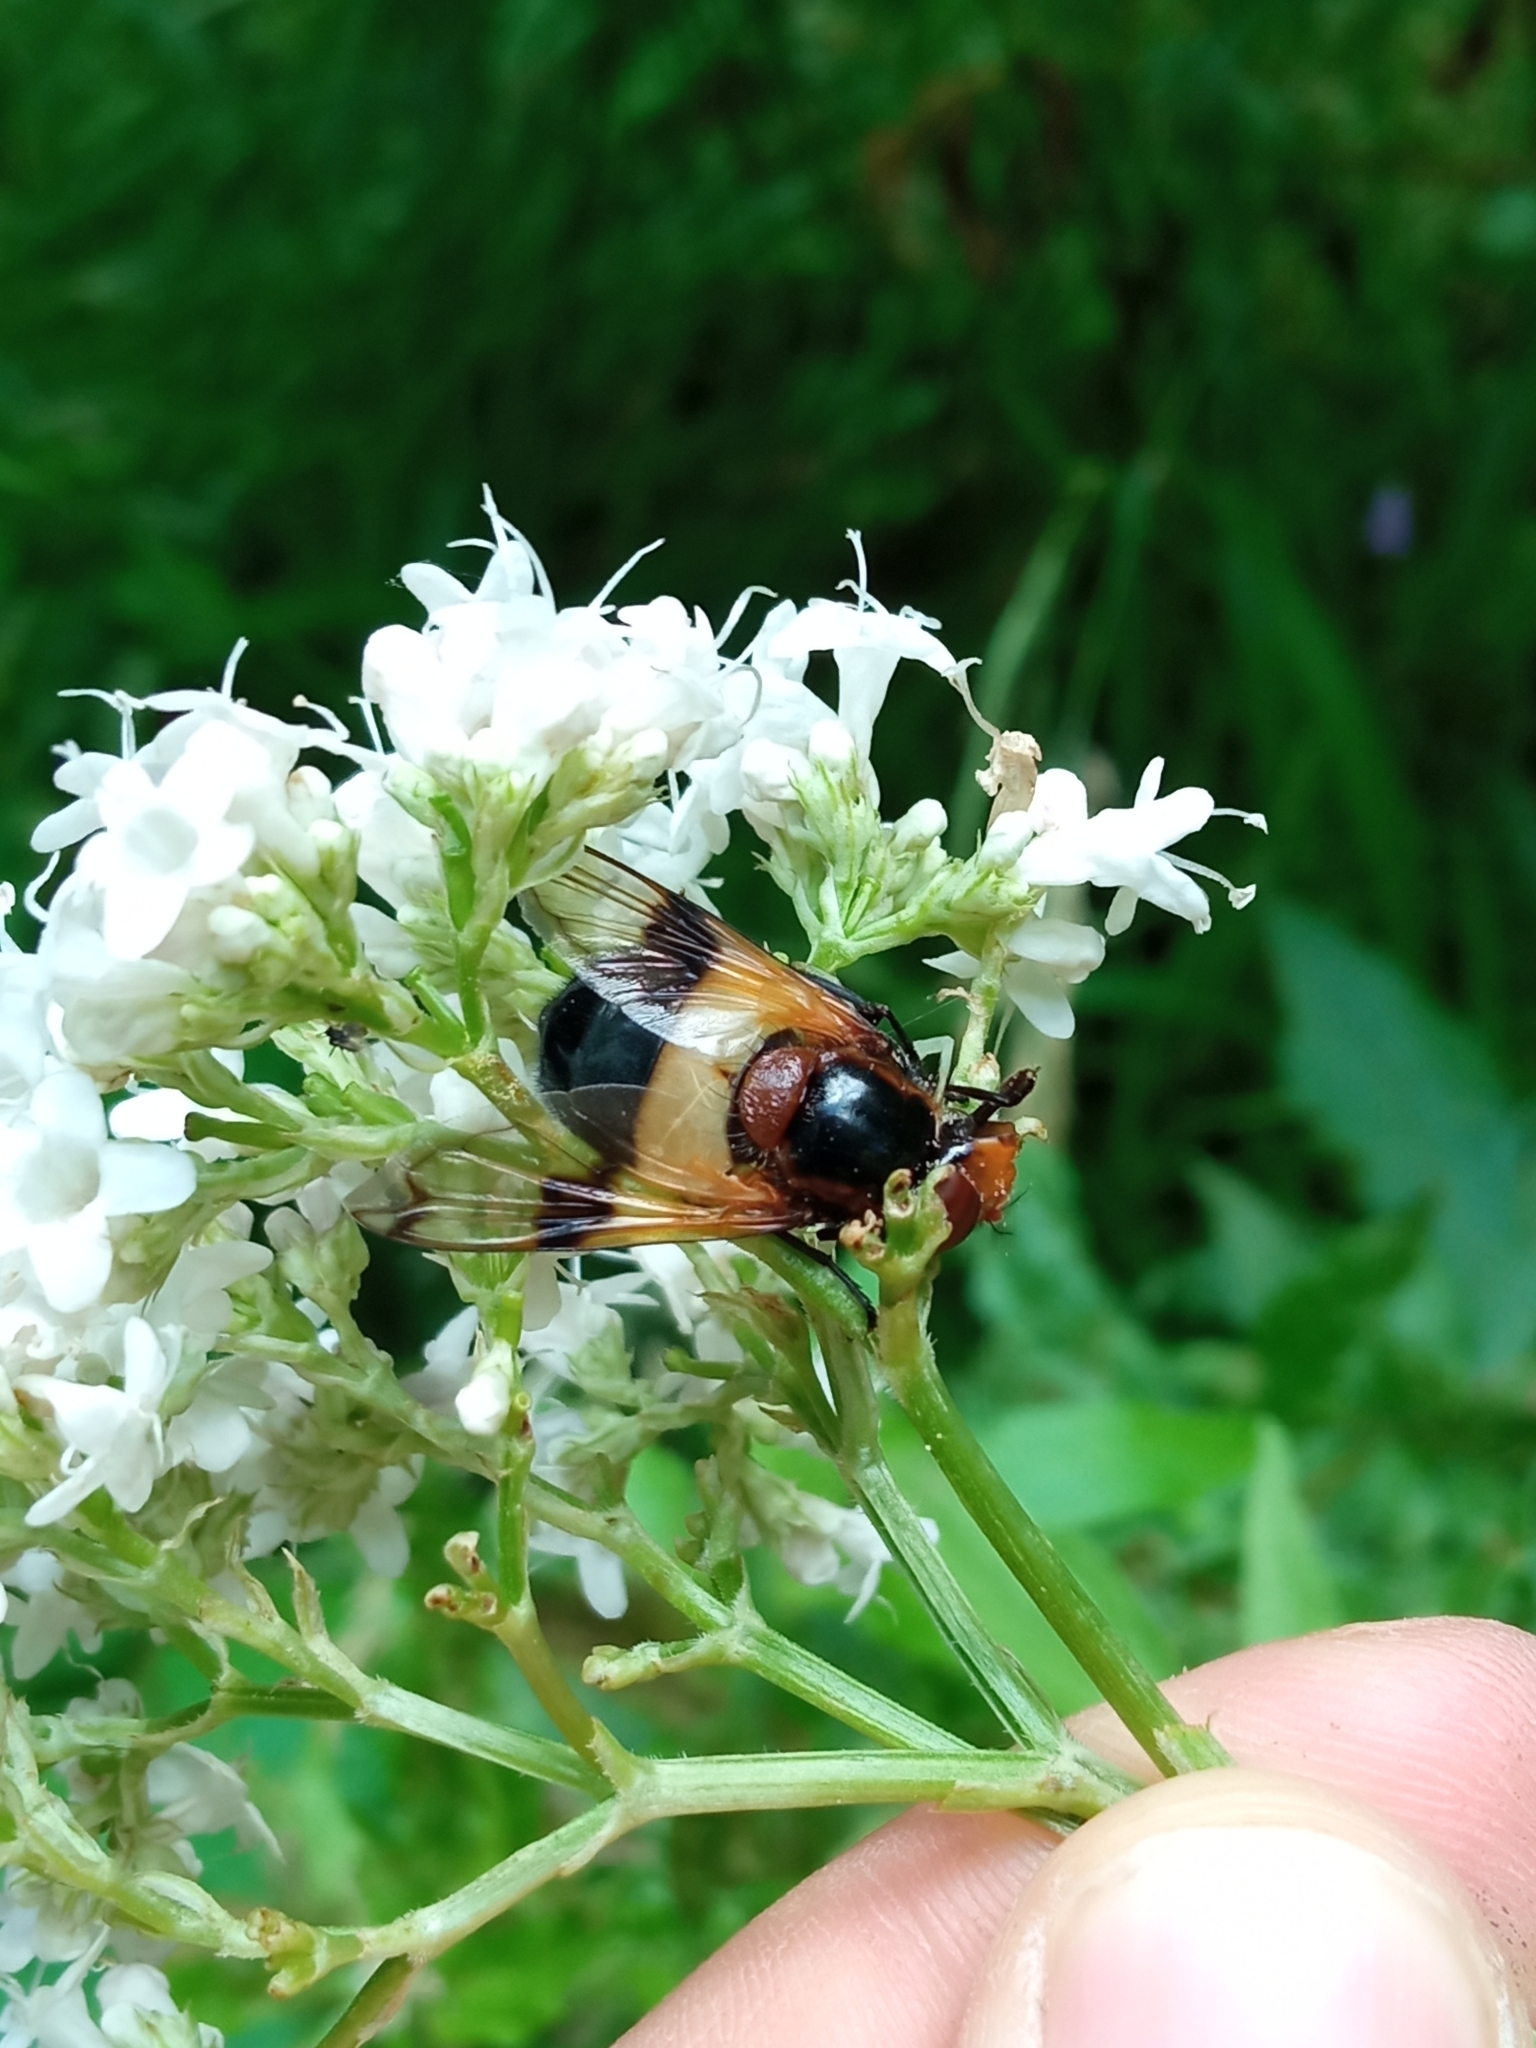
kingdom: Animalia
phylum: Arthropoda
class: Insecta
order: Diptera
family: Syrphidae
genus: Volucella
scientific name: Volucella pellucens
